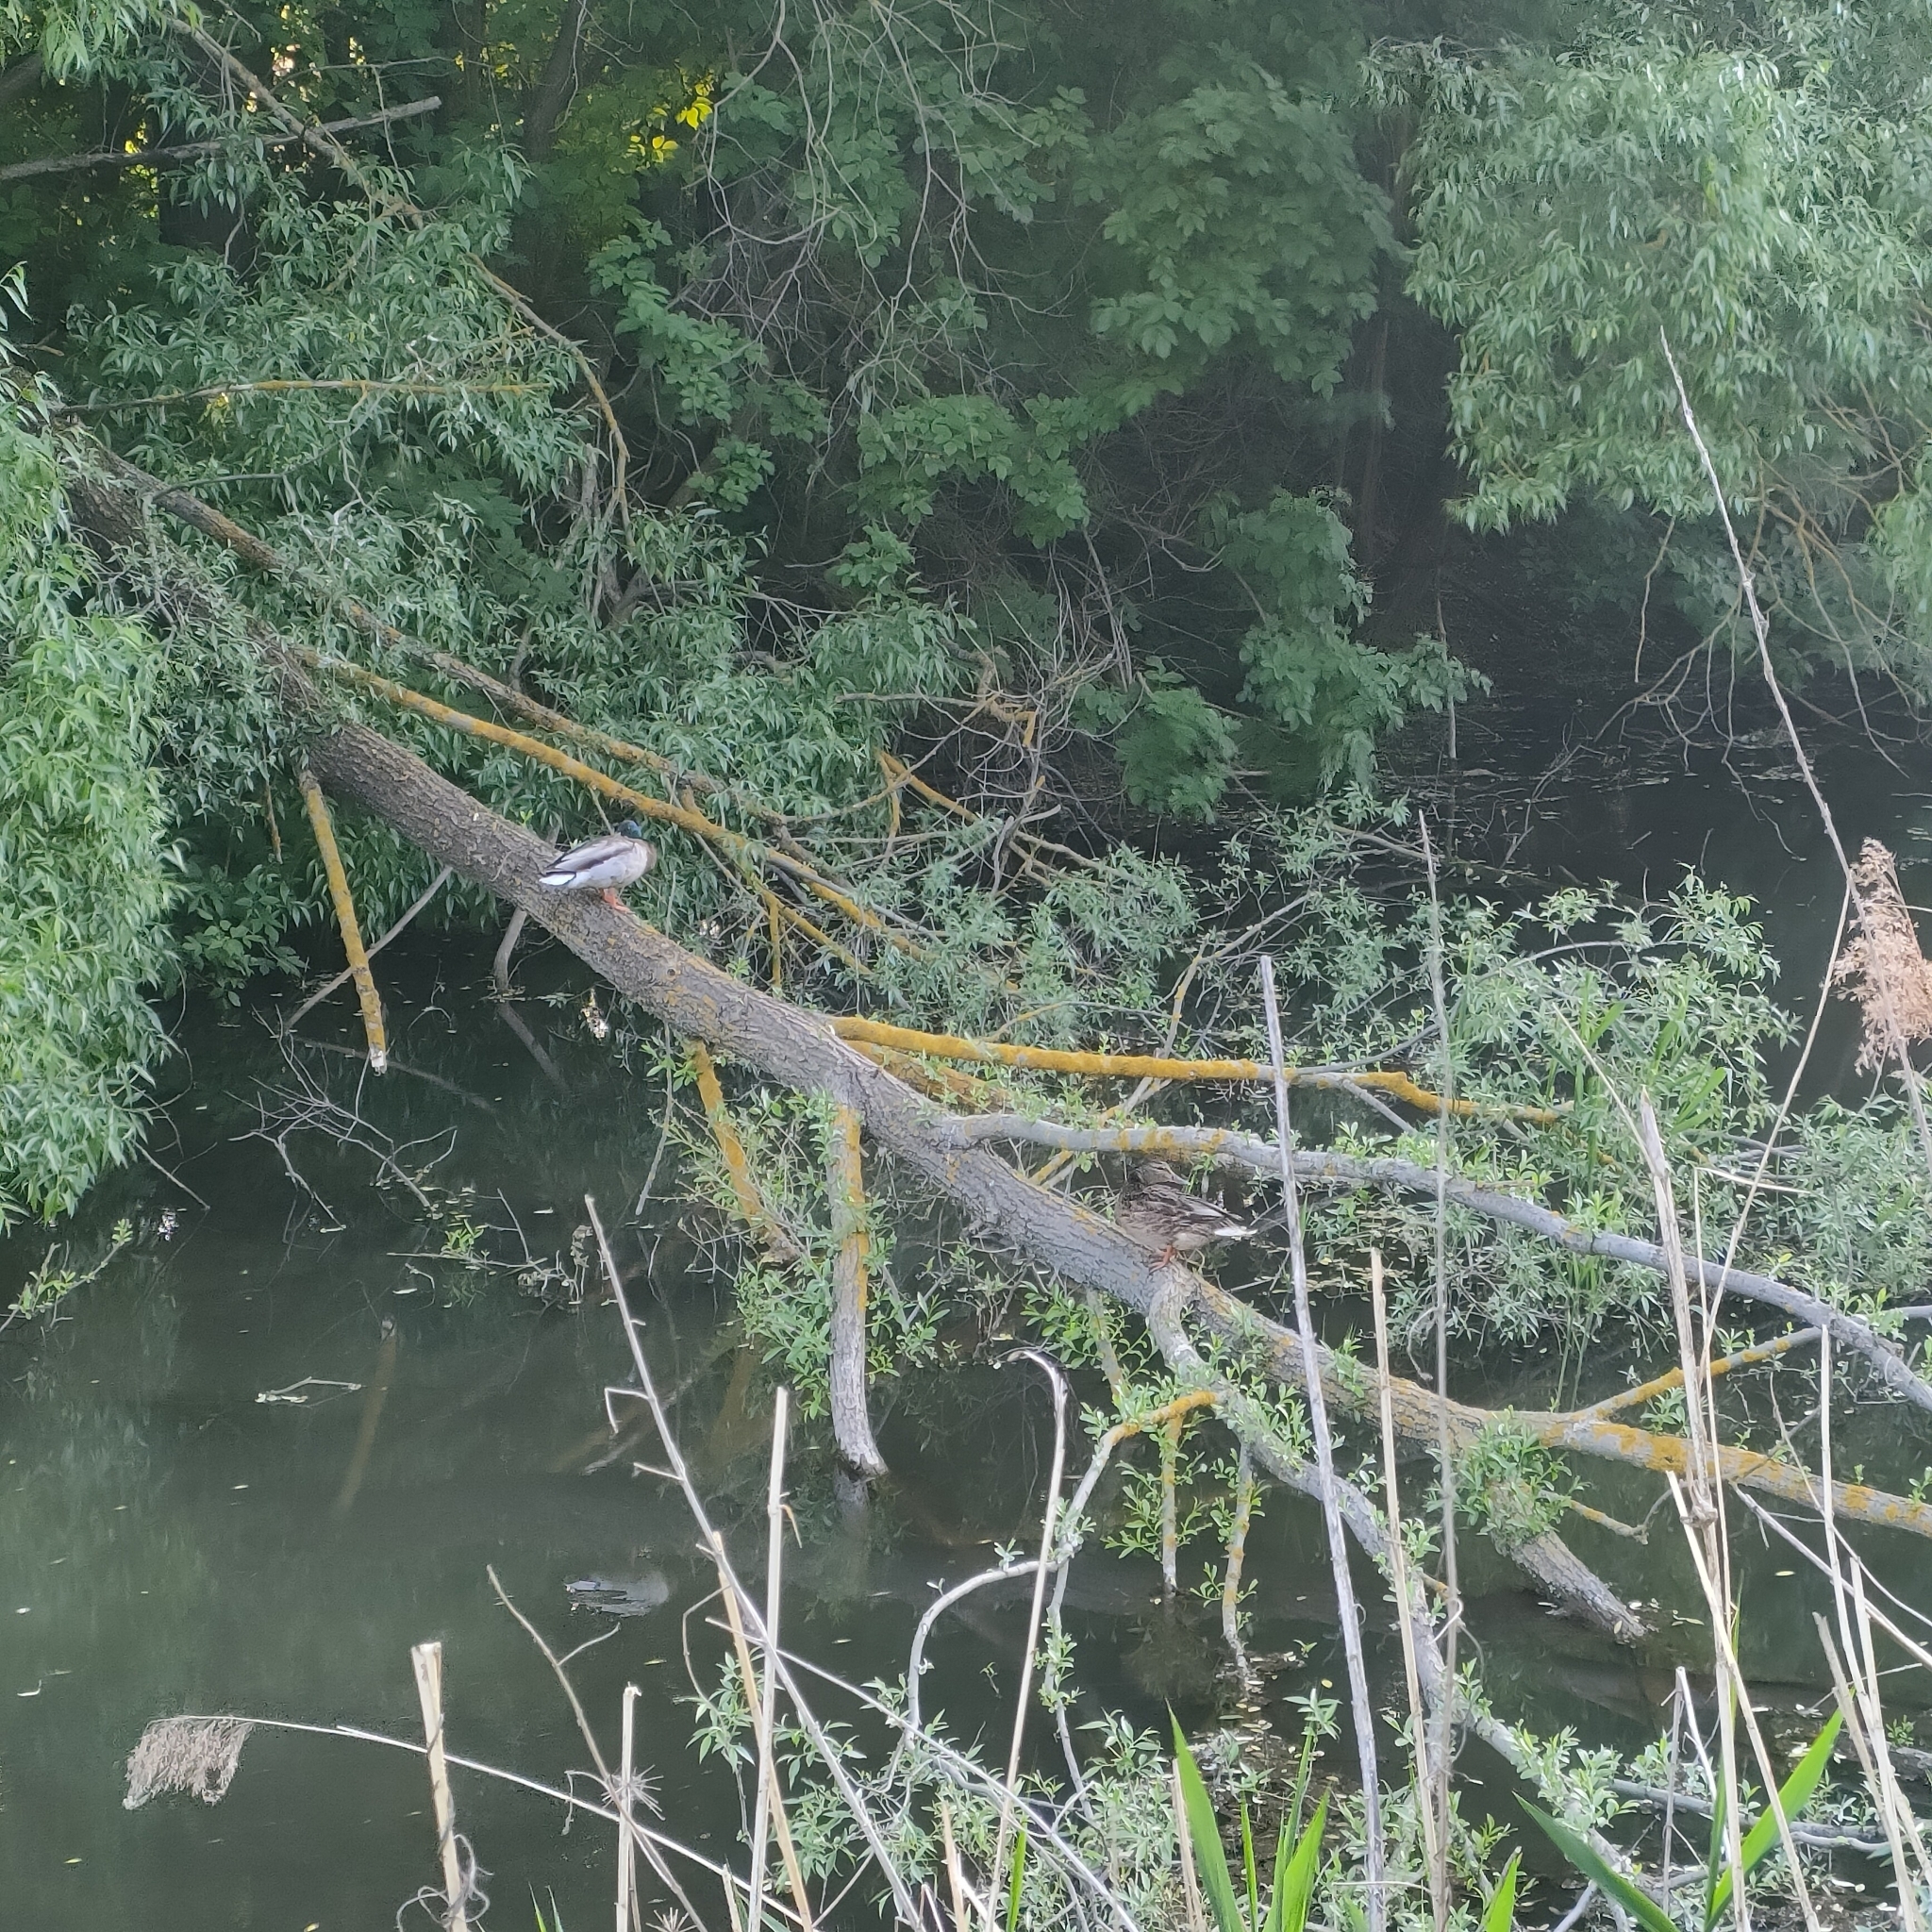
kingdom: Animalia
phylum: Chordata
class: Aves
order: Anseriformes
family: Anatidae
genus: Anas
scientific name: Anas platyrhynchos
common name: Mallard
